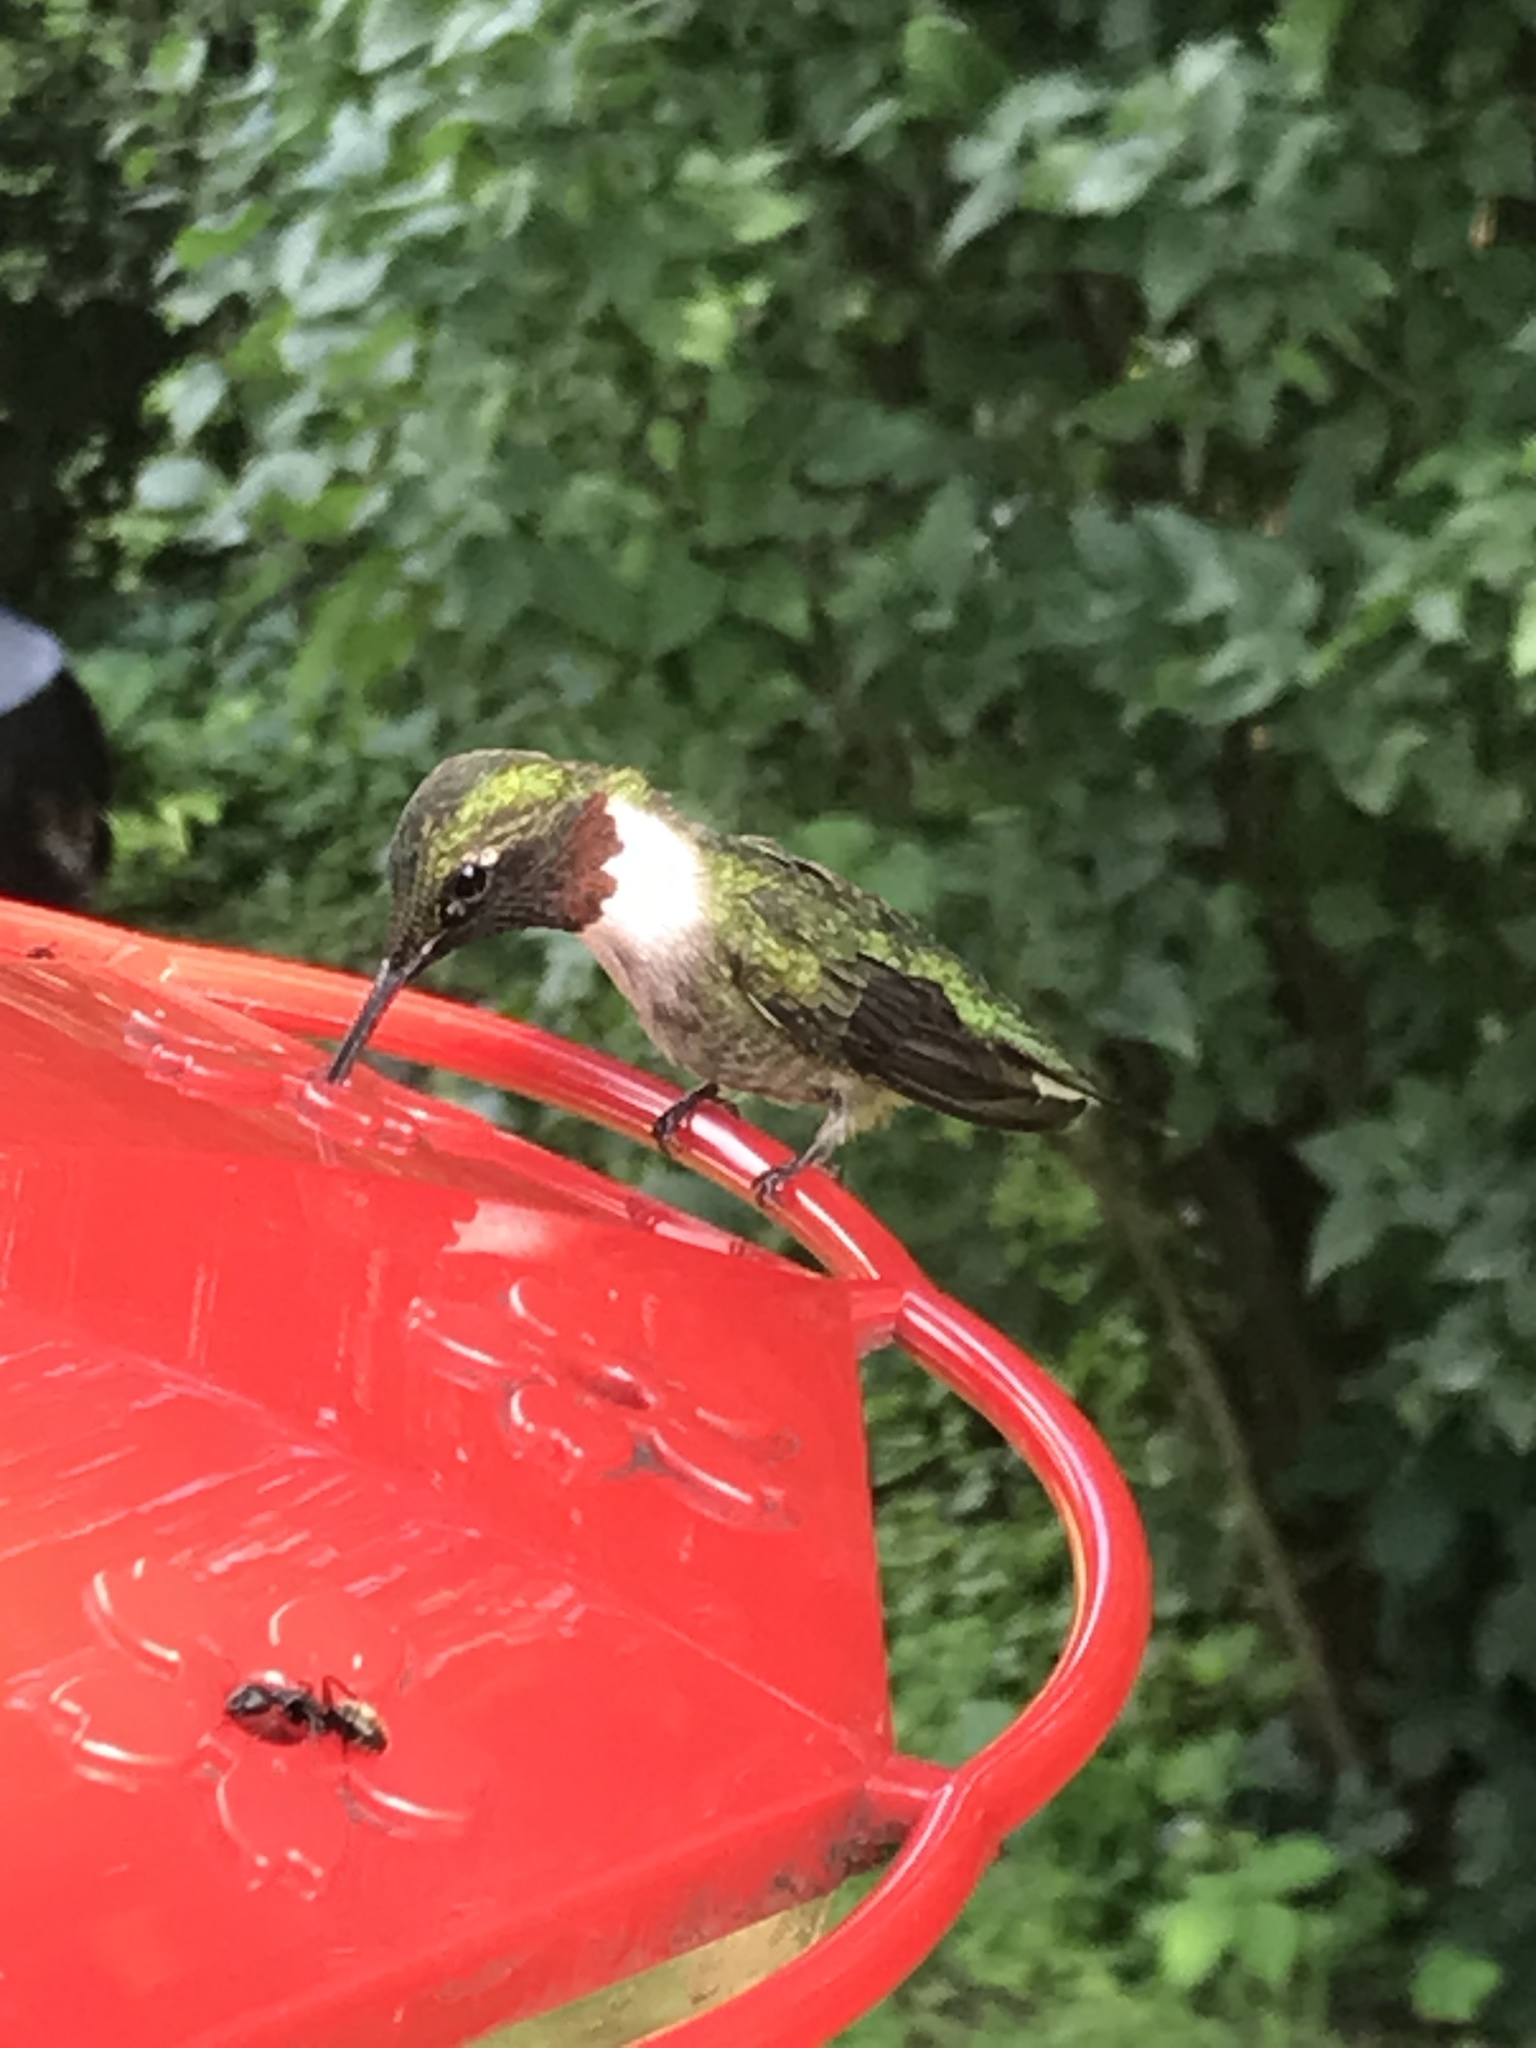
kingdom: Animalia
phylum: Chordata
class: Aves
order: Apodiformes
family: Trochilidae
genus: Archilochus
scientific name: Archilochus colubris
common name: Ruby-throated hummingbird
